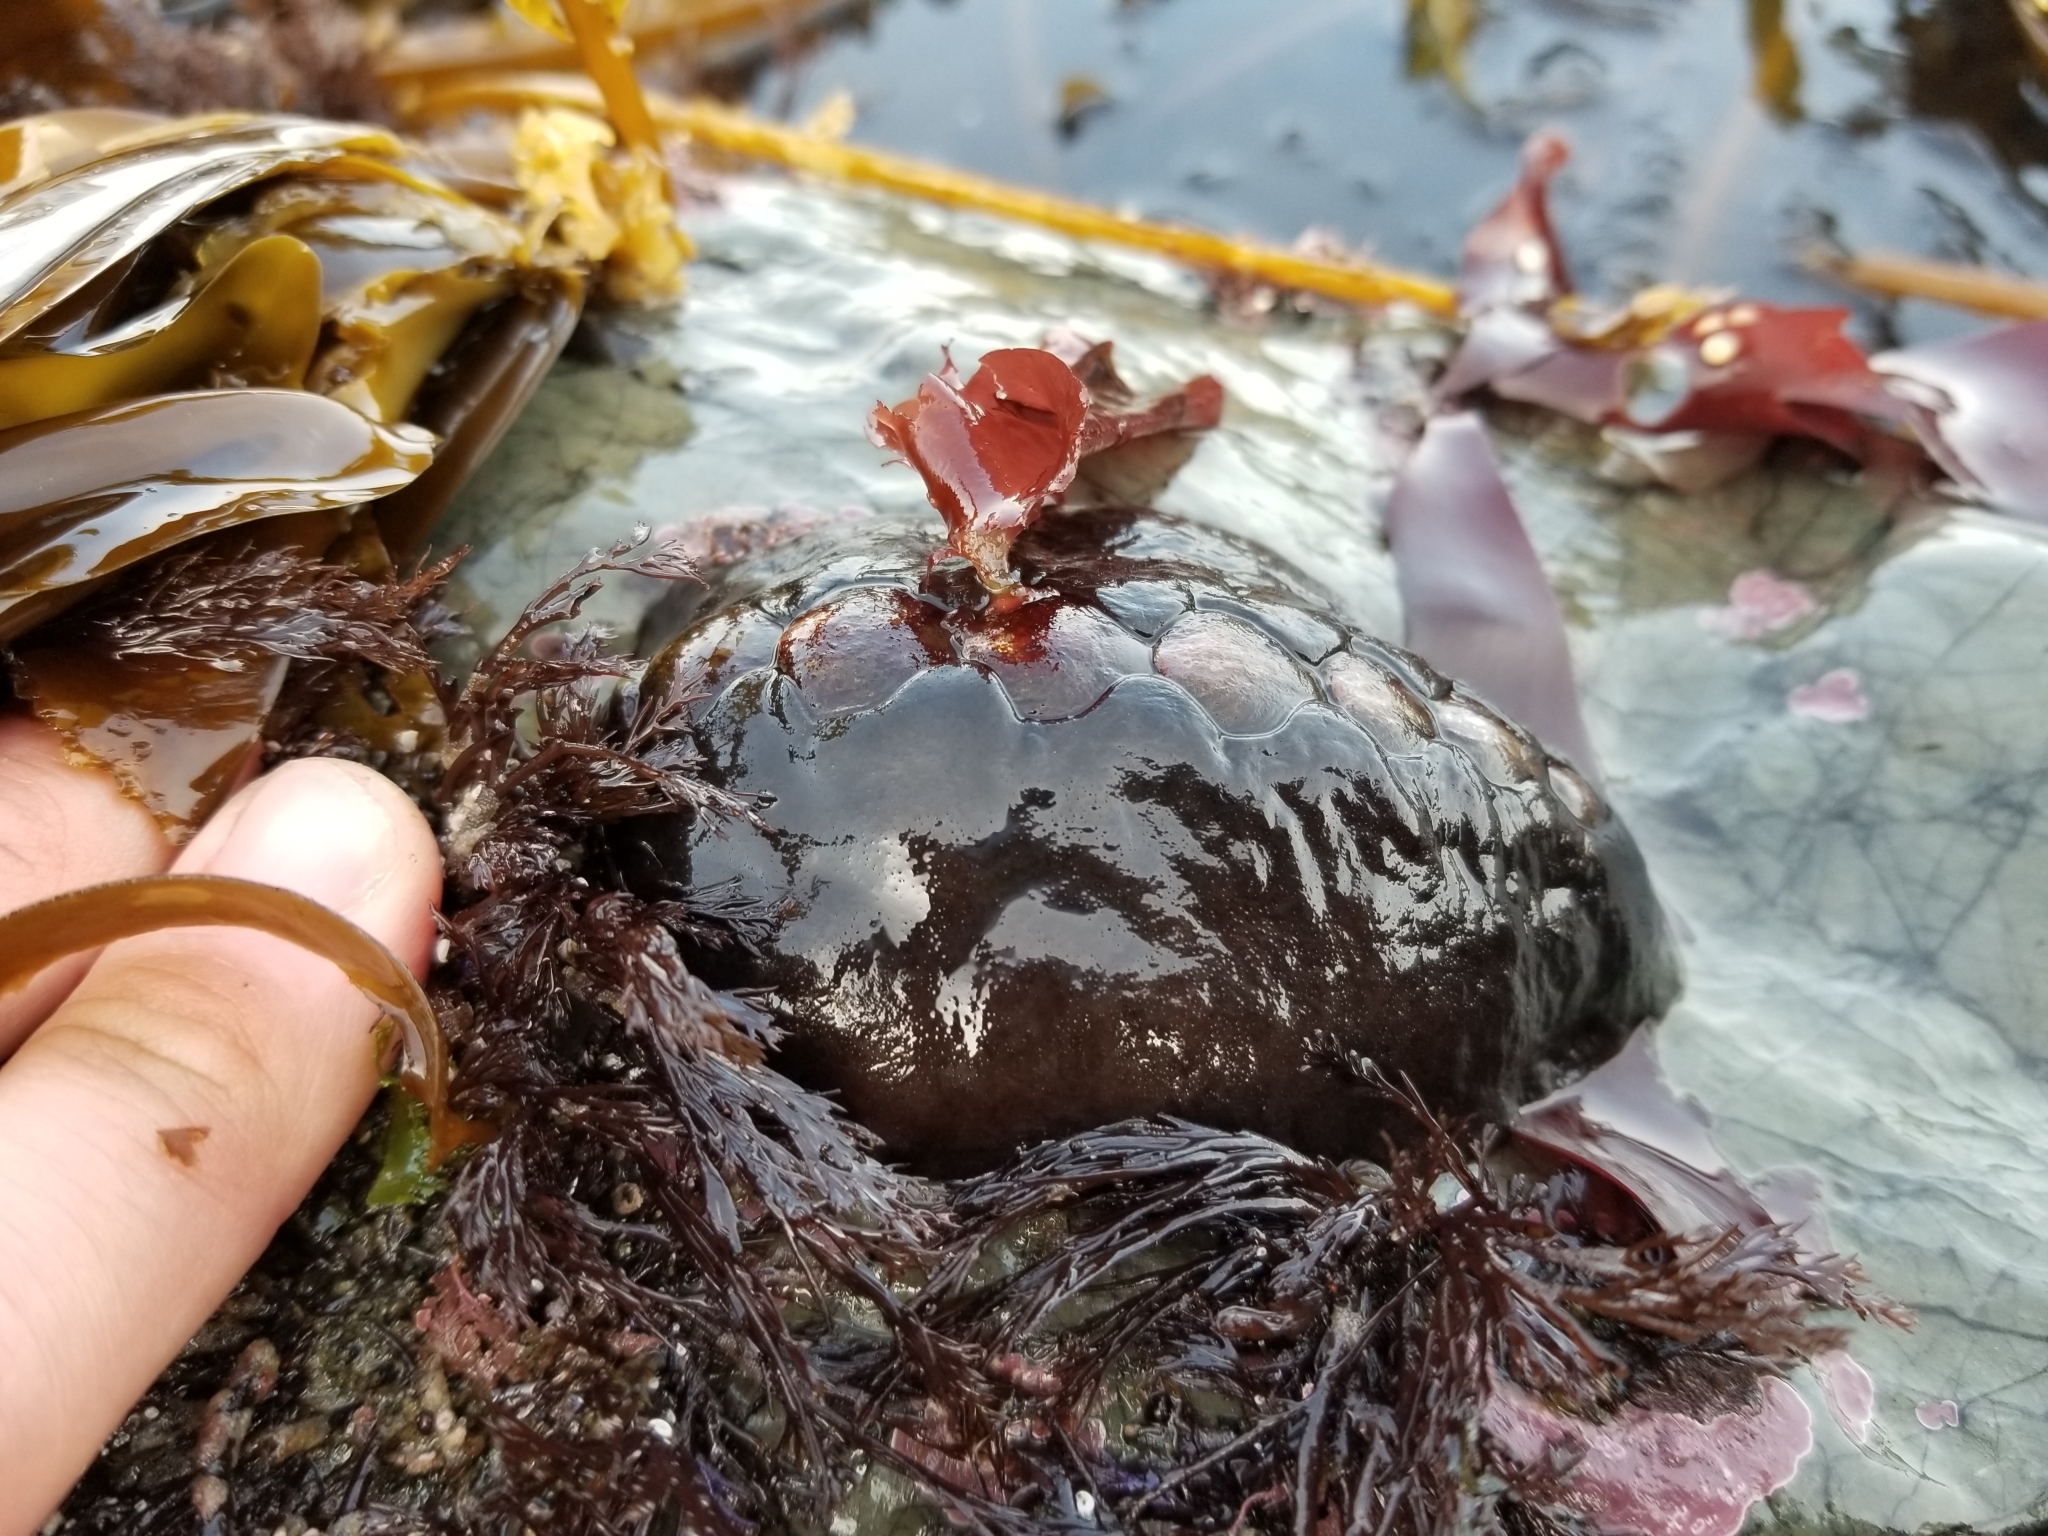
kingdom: Animalia
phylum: Mollusca
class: Polyplacophora
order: Chitonida
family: Mopaliidae
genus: Katharina
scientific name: Katharina tunicata
